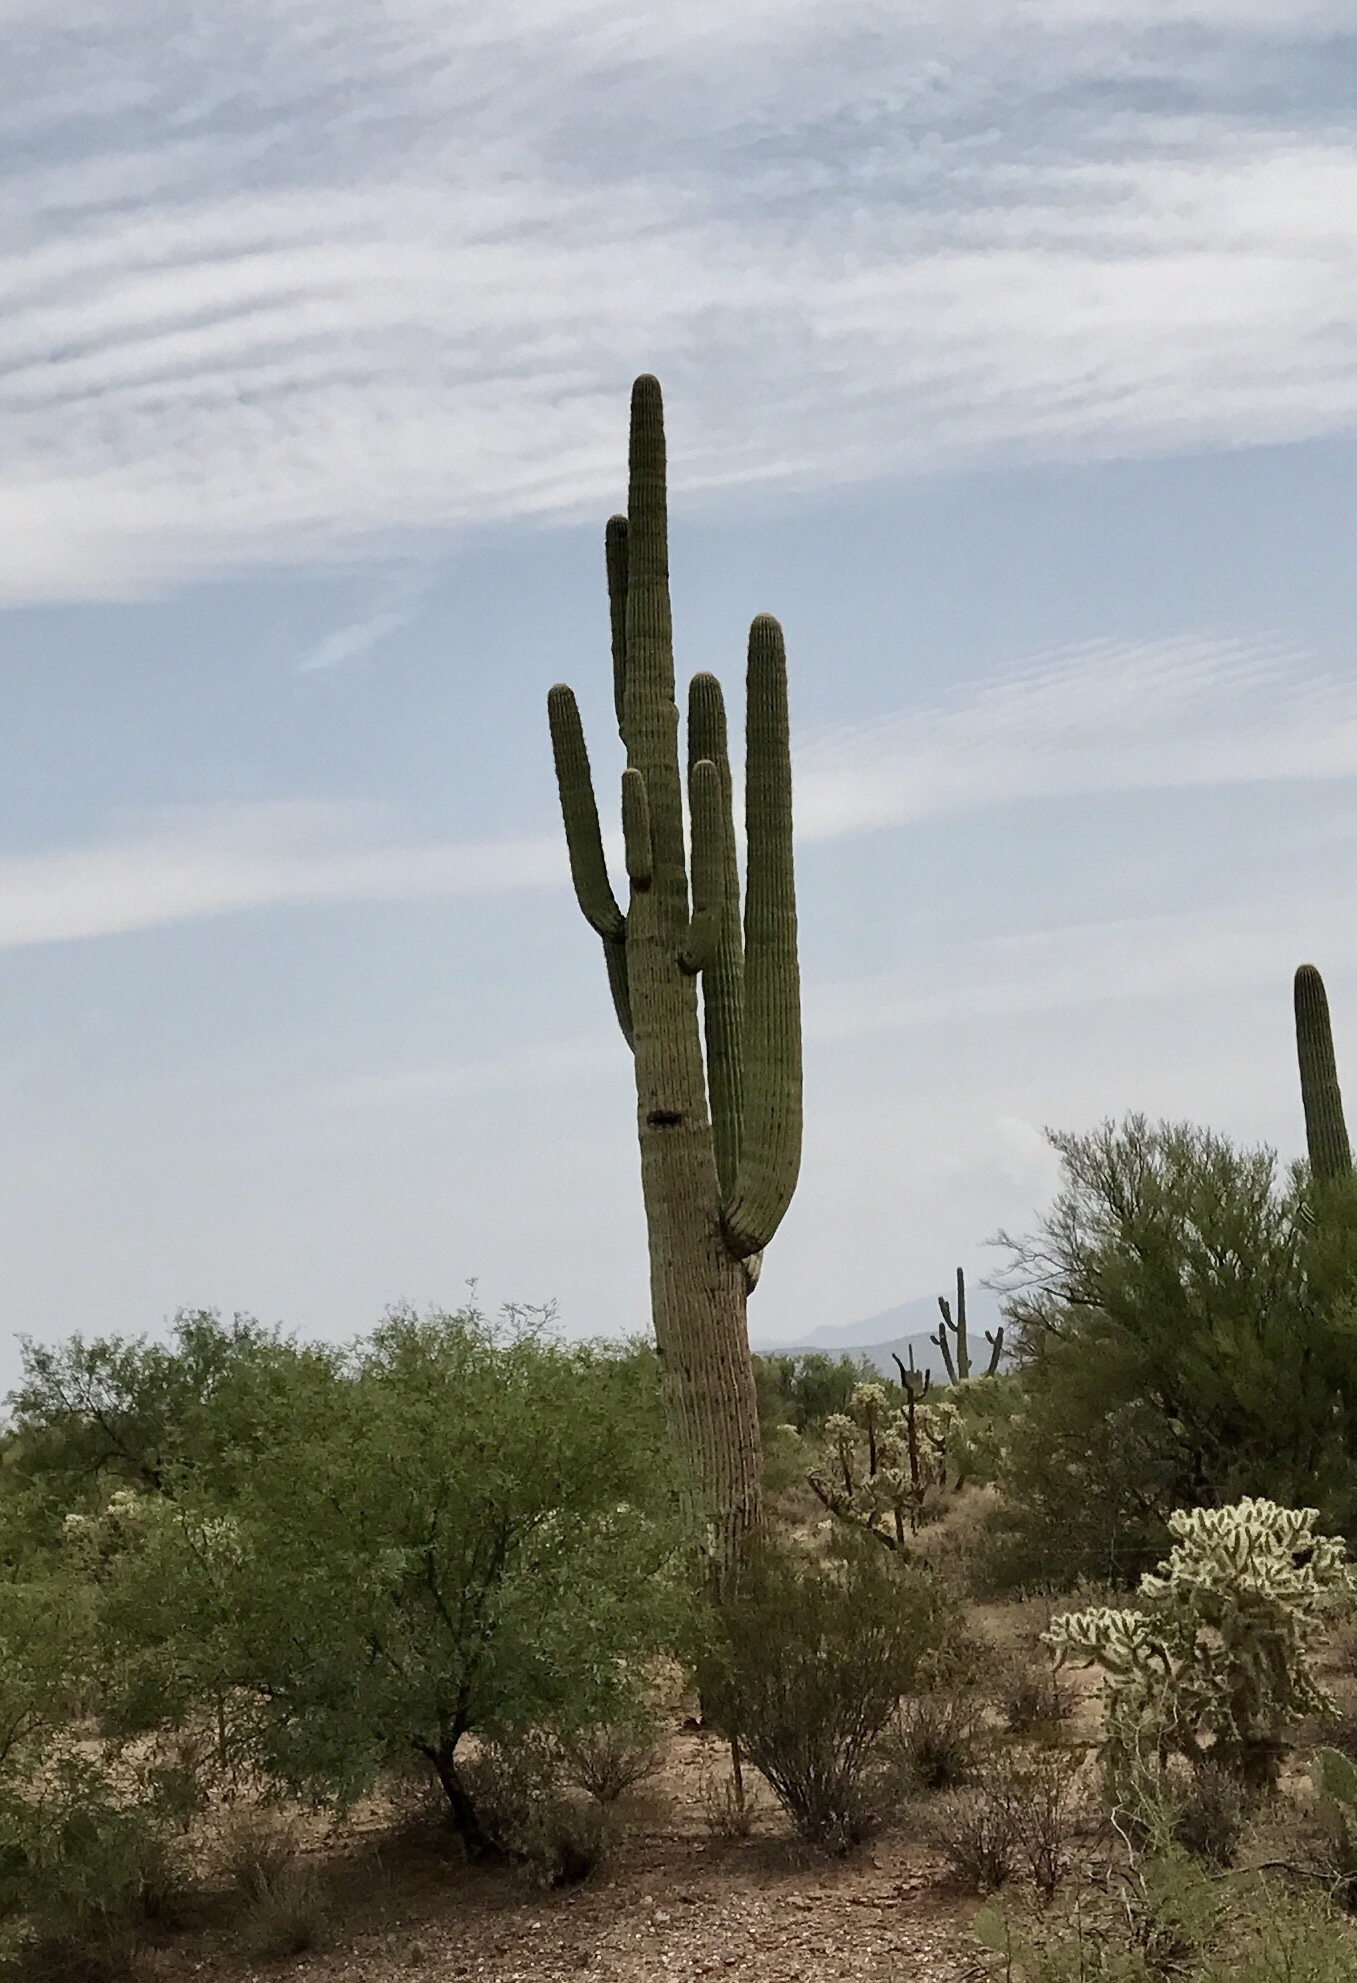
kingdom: Plantae
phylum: Tracheophyta
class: Magnoliopsida
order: Caryophyllales
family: Cactaceae
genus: Carnegiea
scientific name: Carnegiea gigantea
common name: Saguaro
